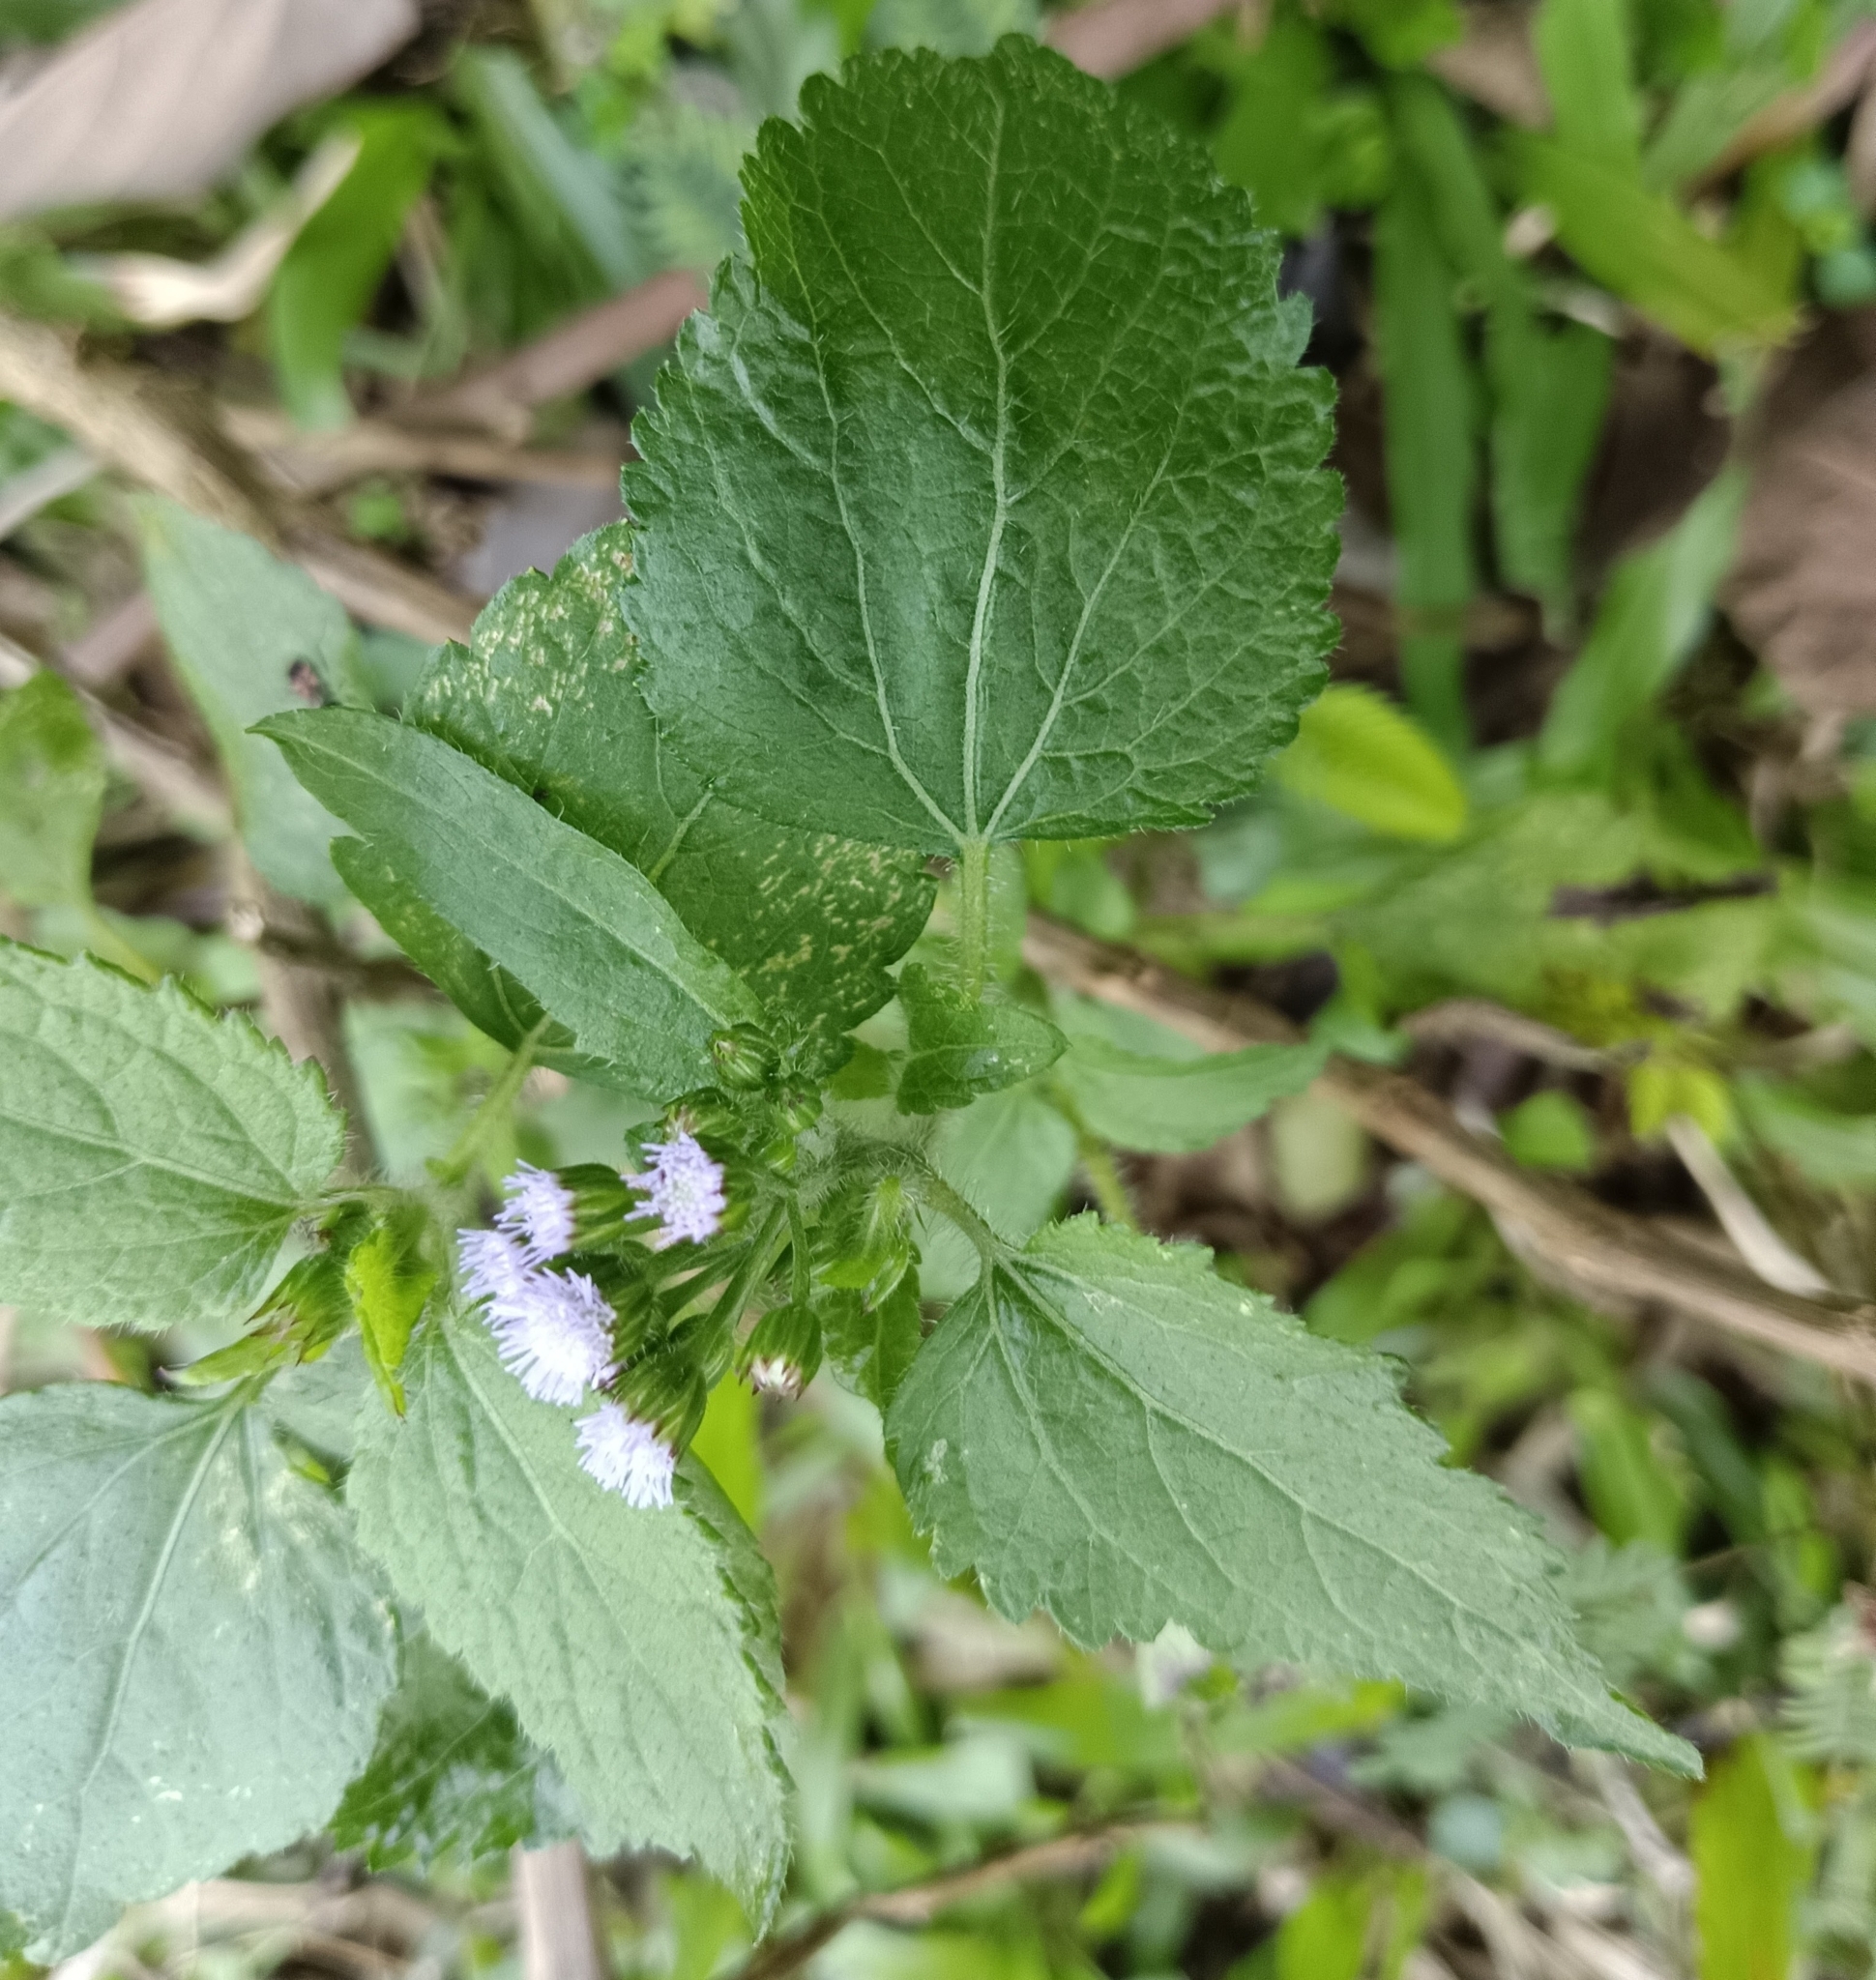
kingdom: Plantae
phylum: Tracheophyta
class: Magnoliopsida
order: Asterales
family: Asteraceae
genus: Ageratum
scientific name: Ageratum conyzoides
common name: Tropical whiteweed
